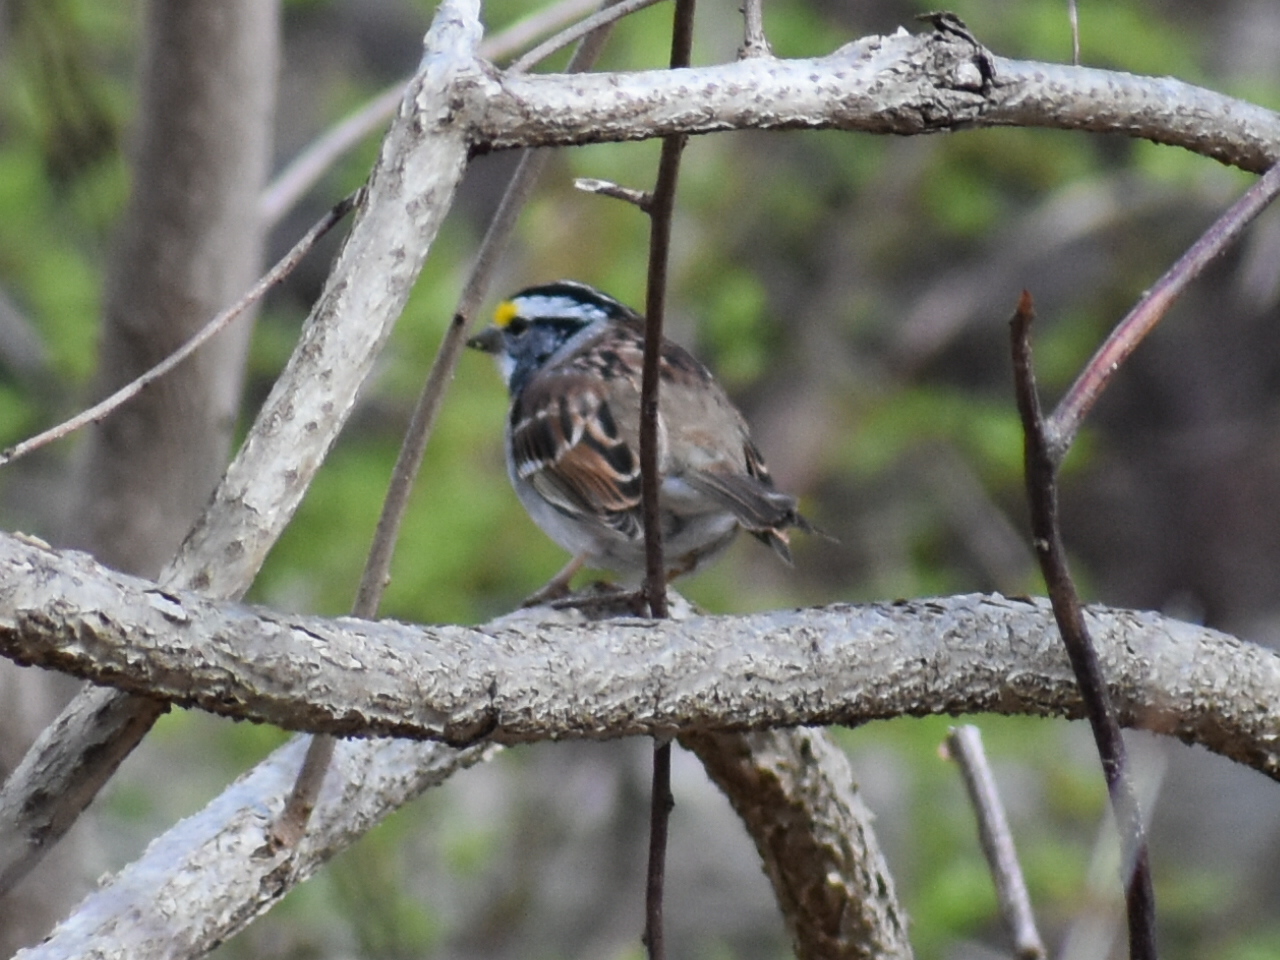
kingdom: Animalia
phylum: Chordata
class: Aves
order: Passeriformes
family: Passerellidae
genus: Zonotrichia
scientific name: Zonotrichia albicollis
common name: White-throated sparrow
